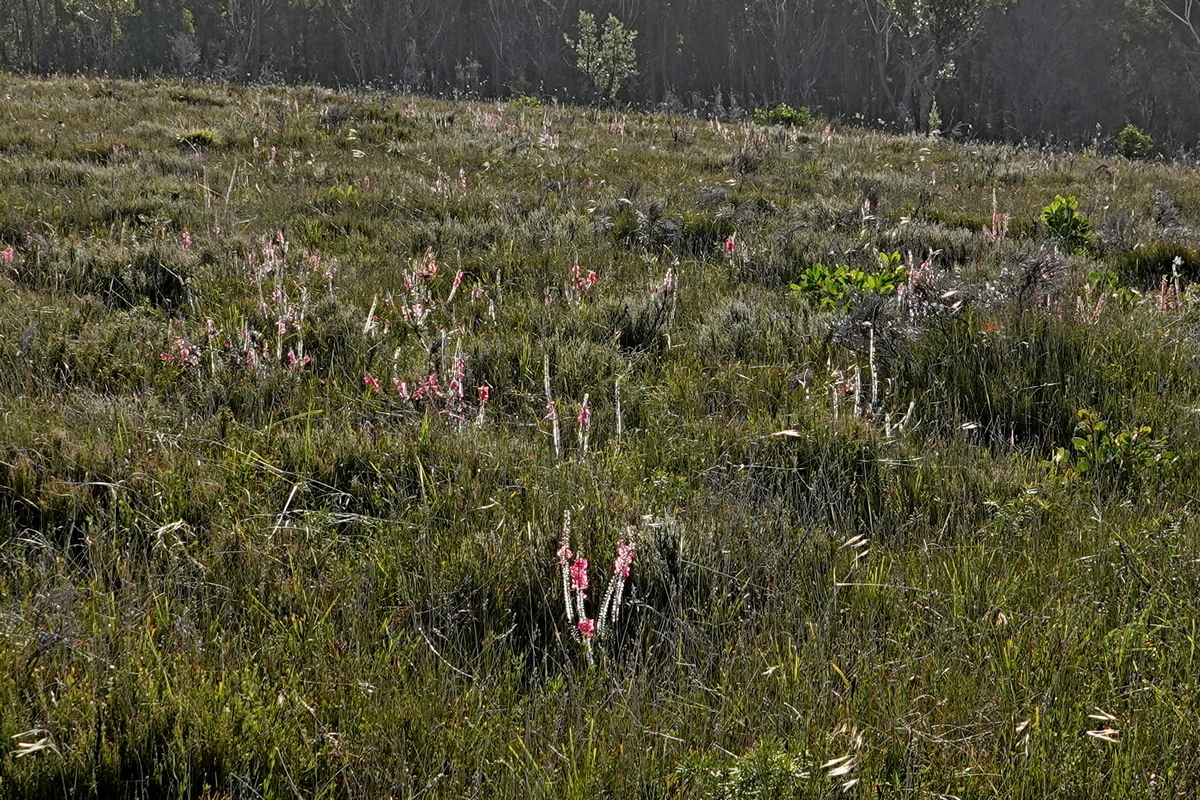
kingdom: Plantae
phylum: Tracheophyta
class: Magnoliopsida
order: Ericales
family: Ericaceae
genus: Epacris
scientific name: Epacris impressa
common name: Common-heath
